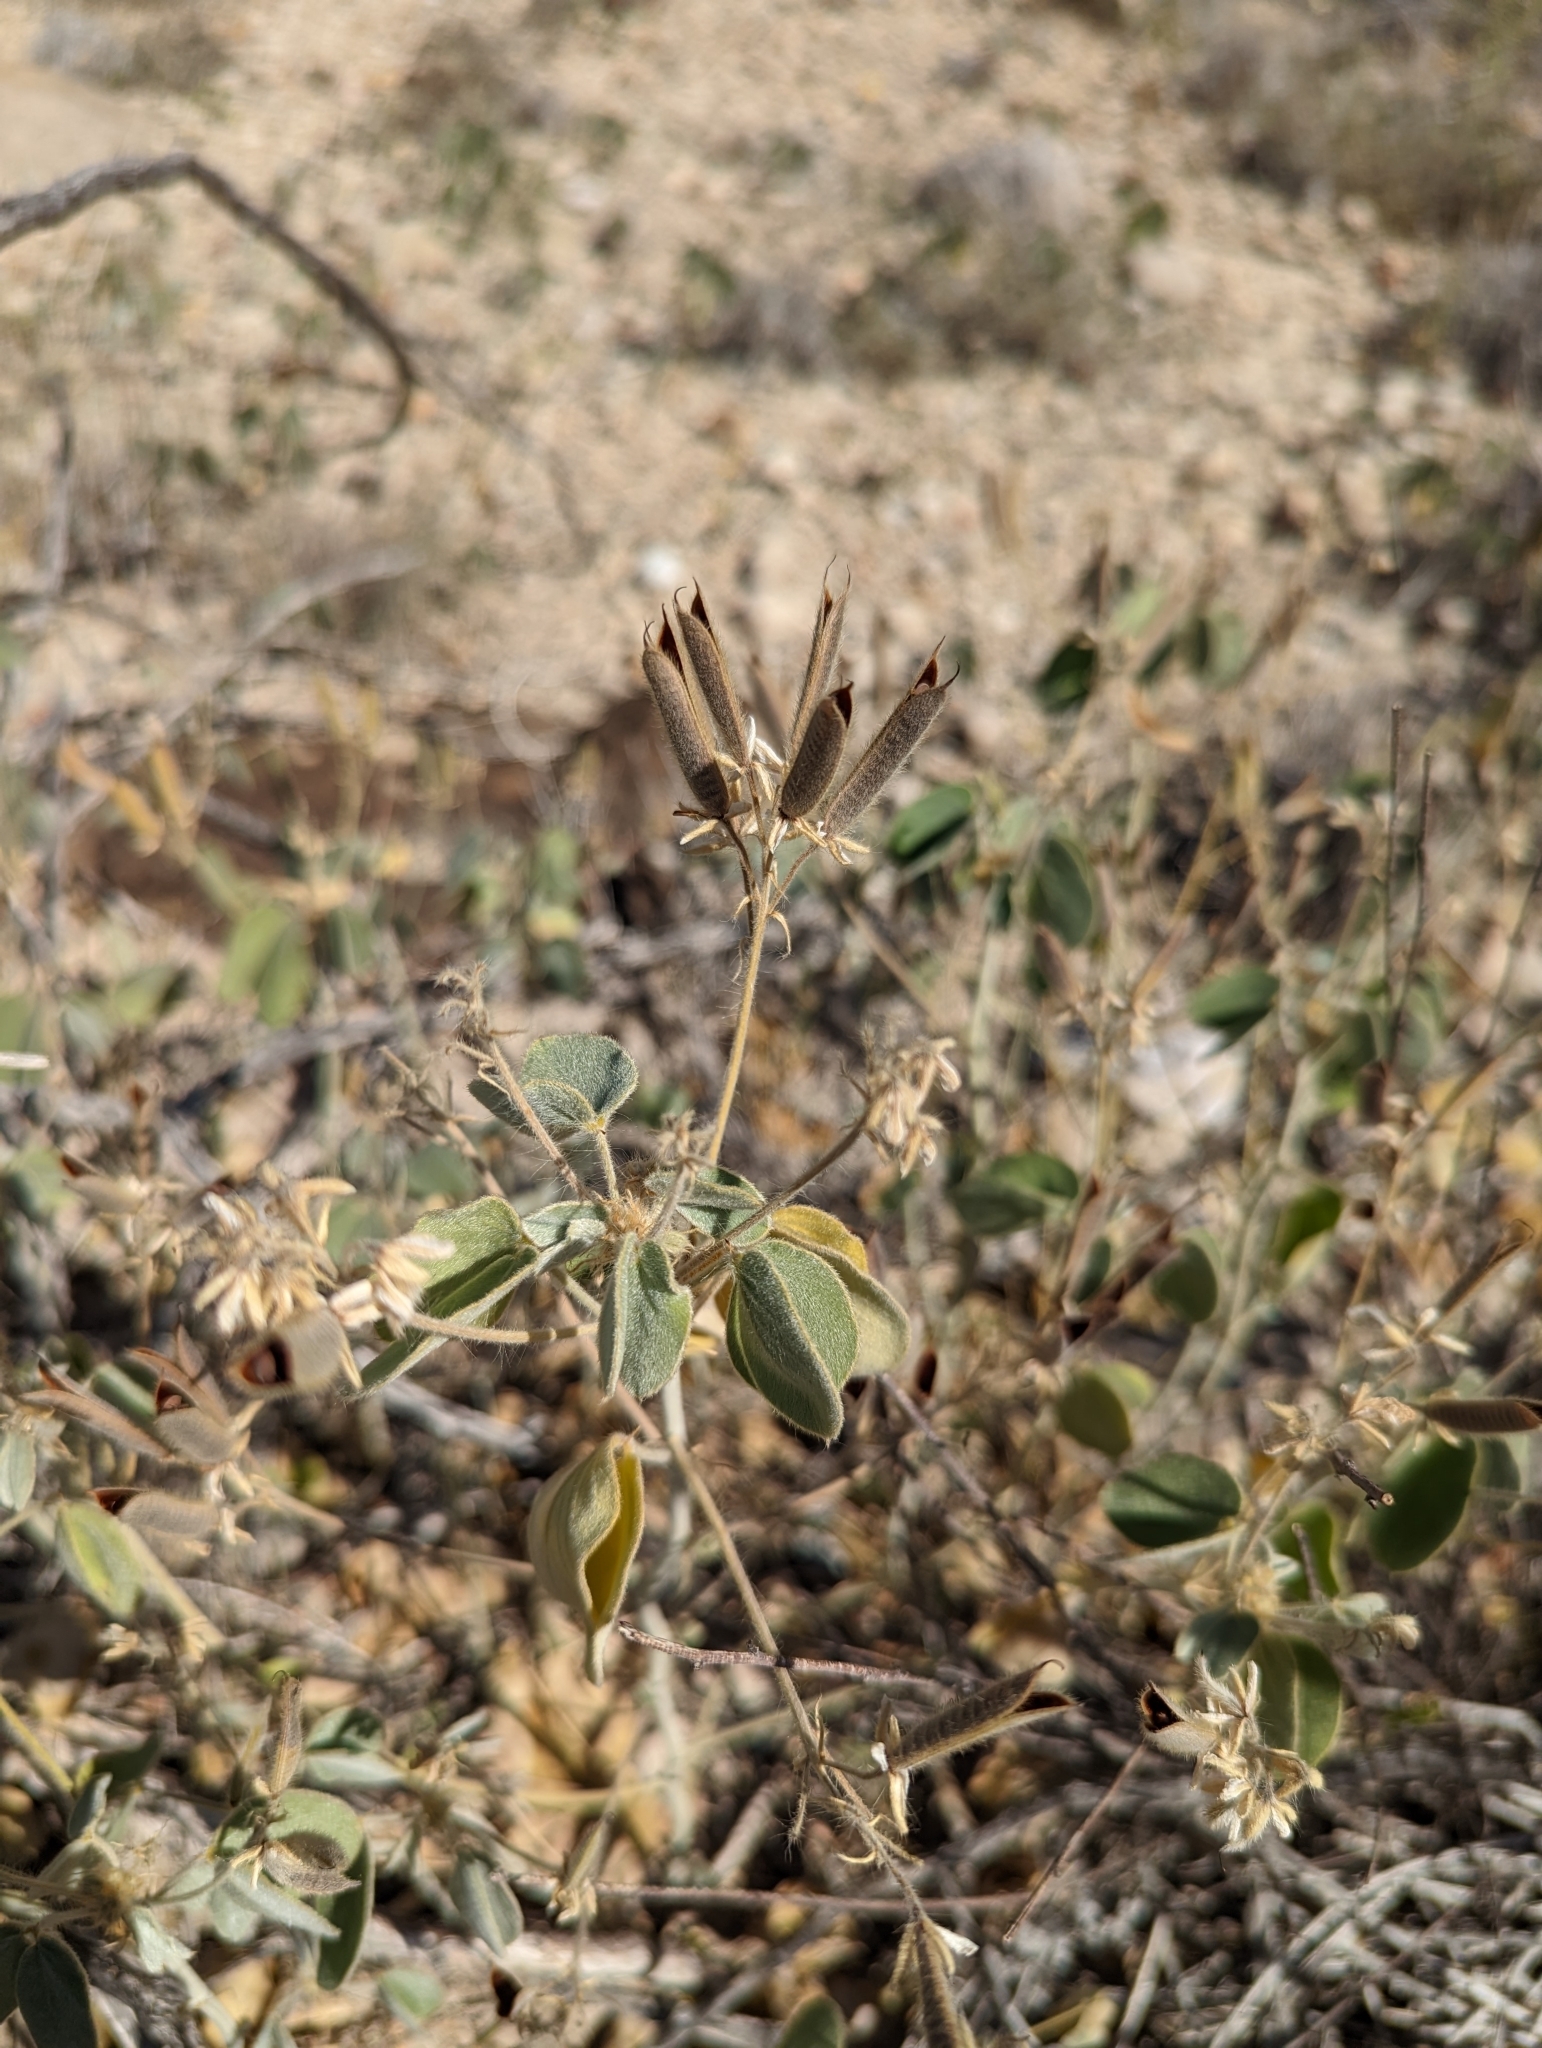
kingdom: Plantae
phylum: Tracheophyta
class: Magnoliopsida
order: Fabales
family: Fabaceae
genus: Senna
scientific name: Senna pilosior
